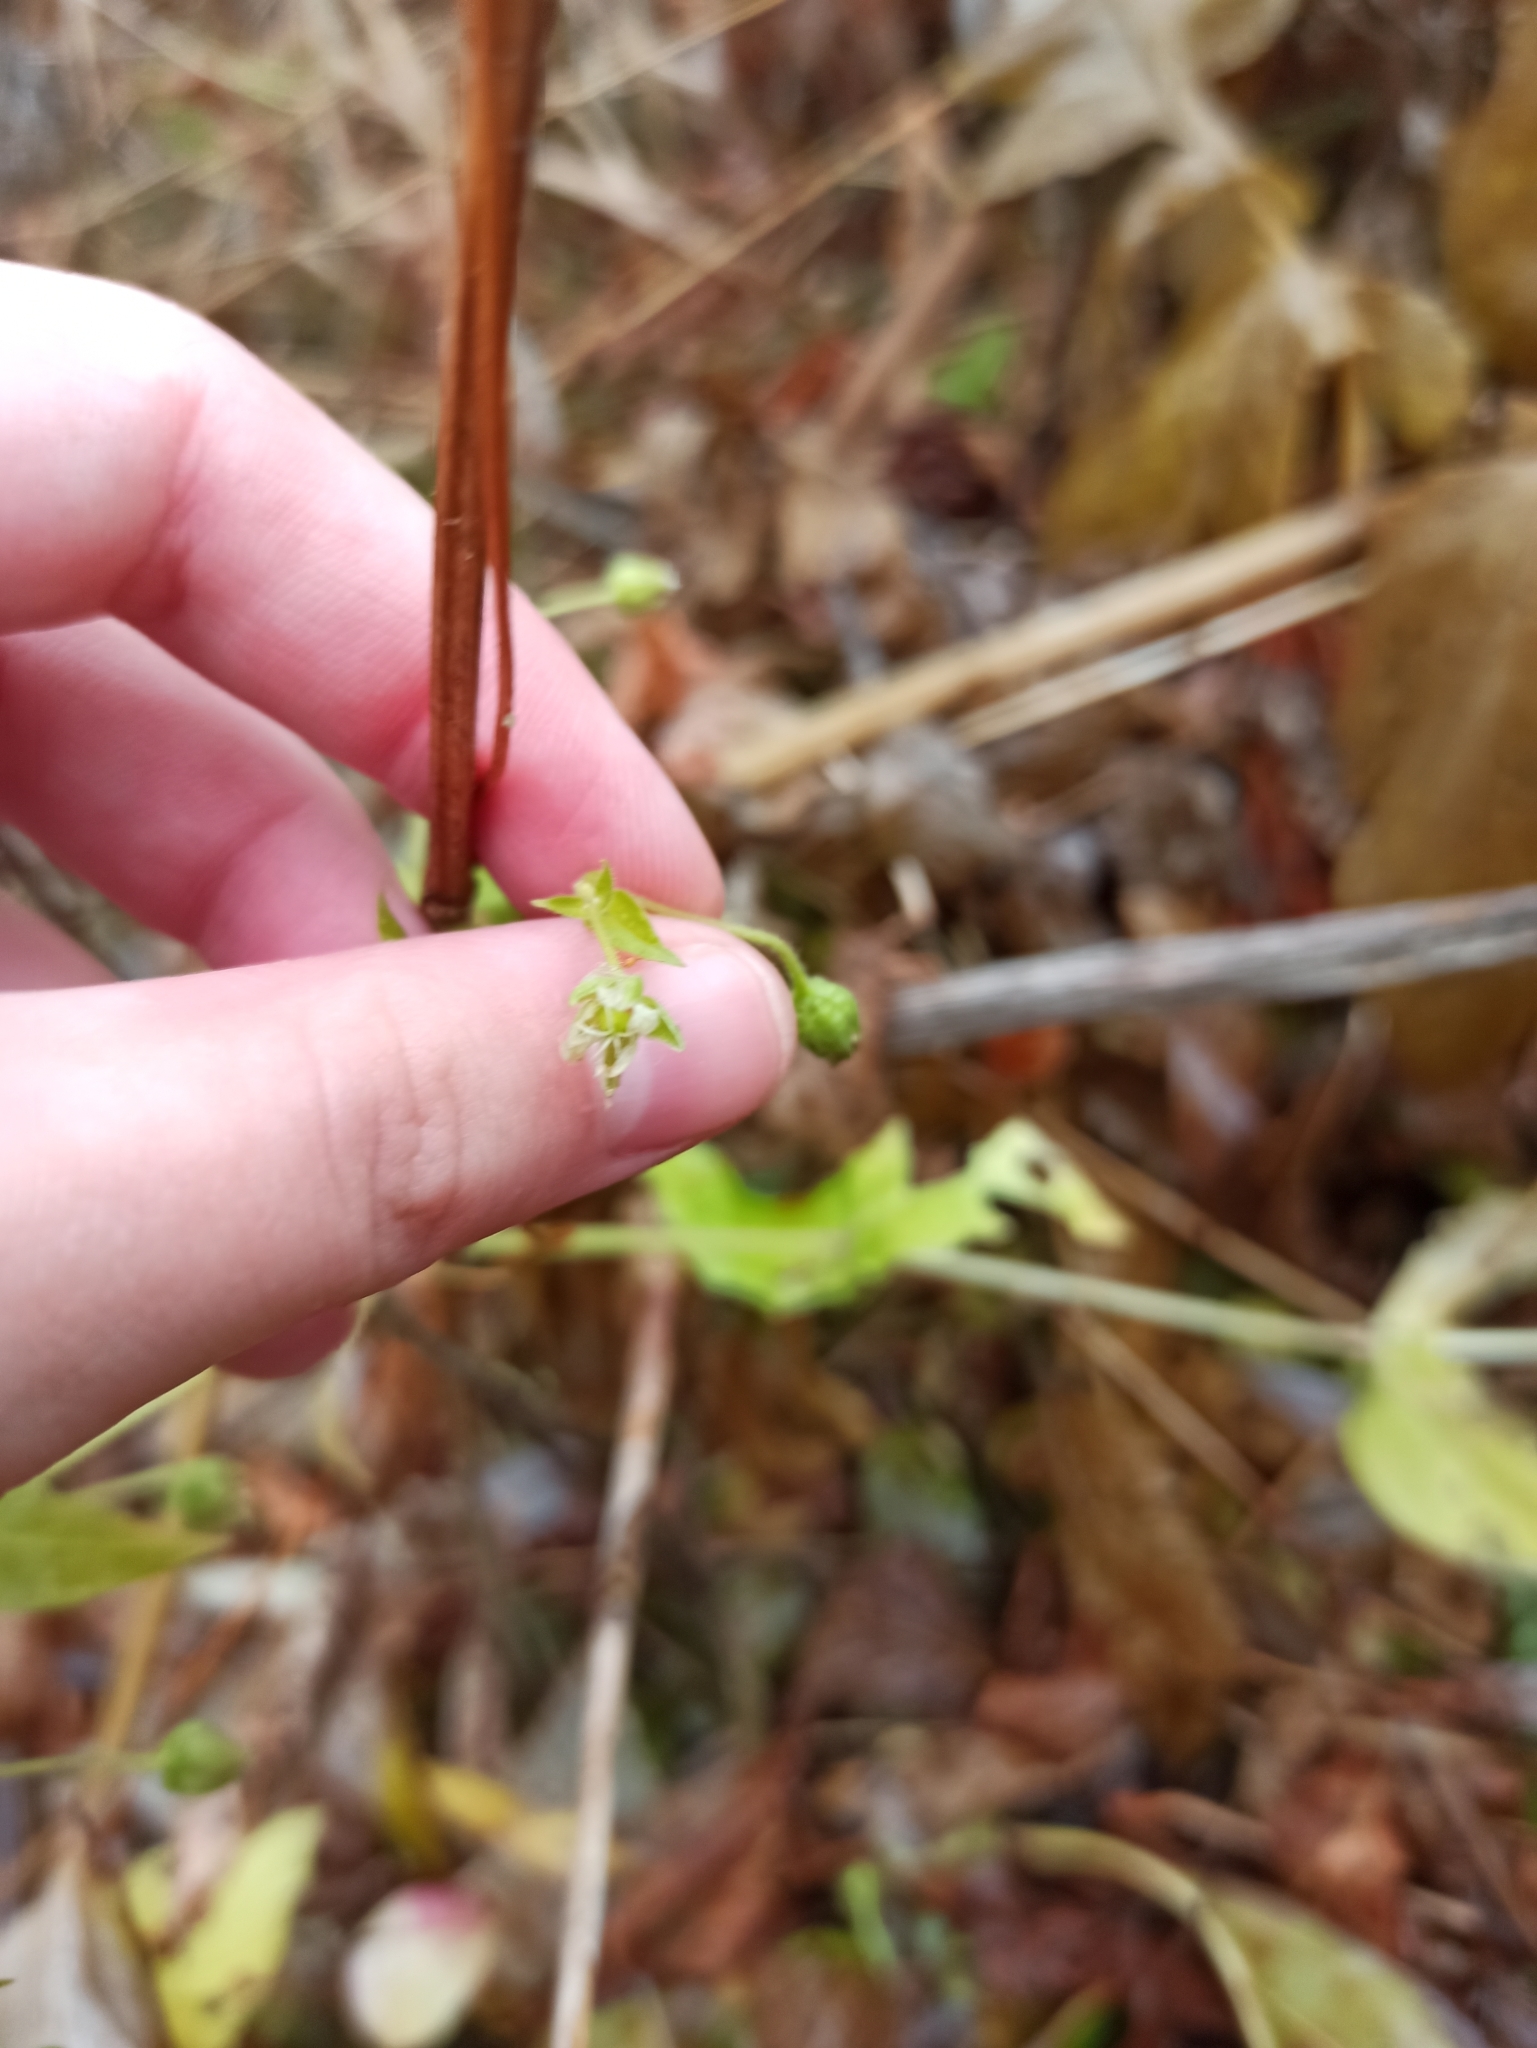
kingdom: Plantae
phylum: Tracheophyta
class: Magnoliopsida
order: Caryophyllales
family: Caryophyllaceae
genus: Stellaria
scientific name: Stellaria aquatica
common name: Water chickweed
